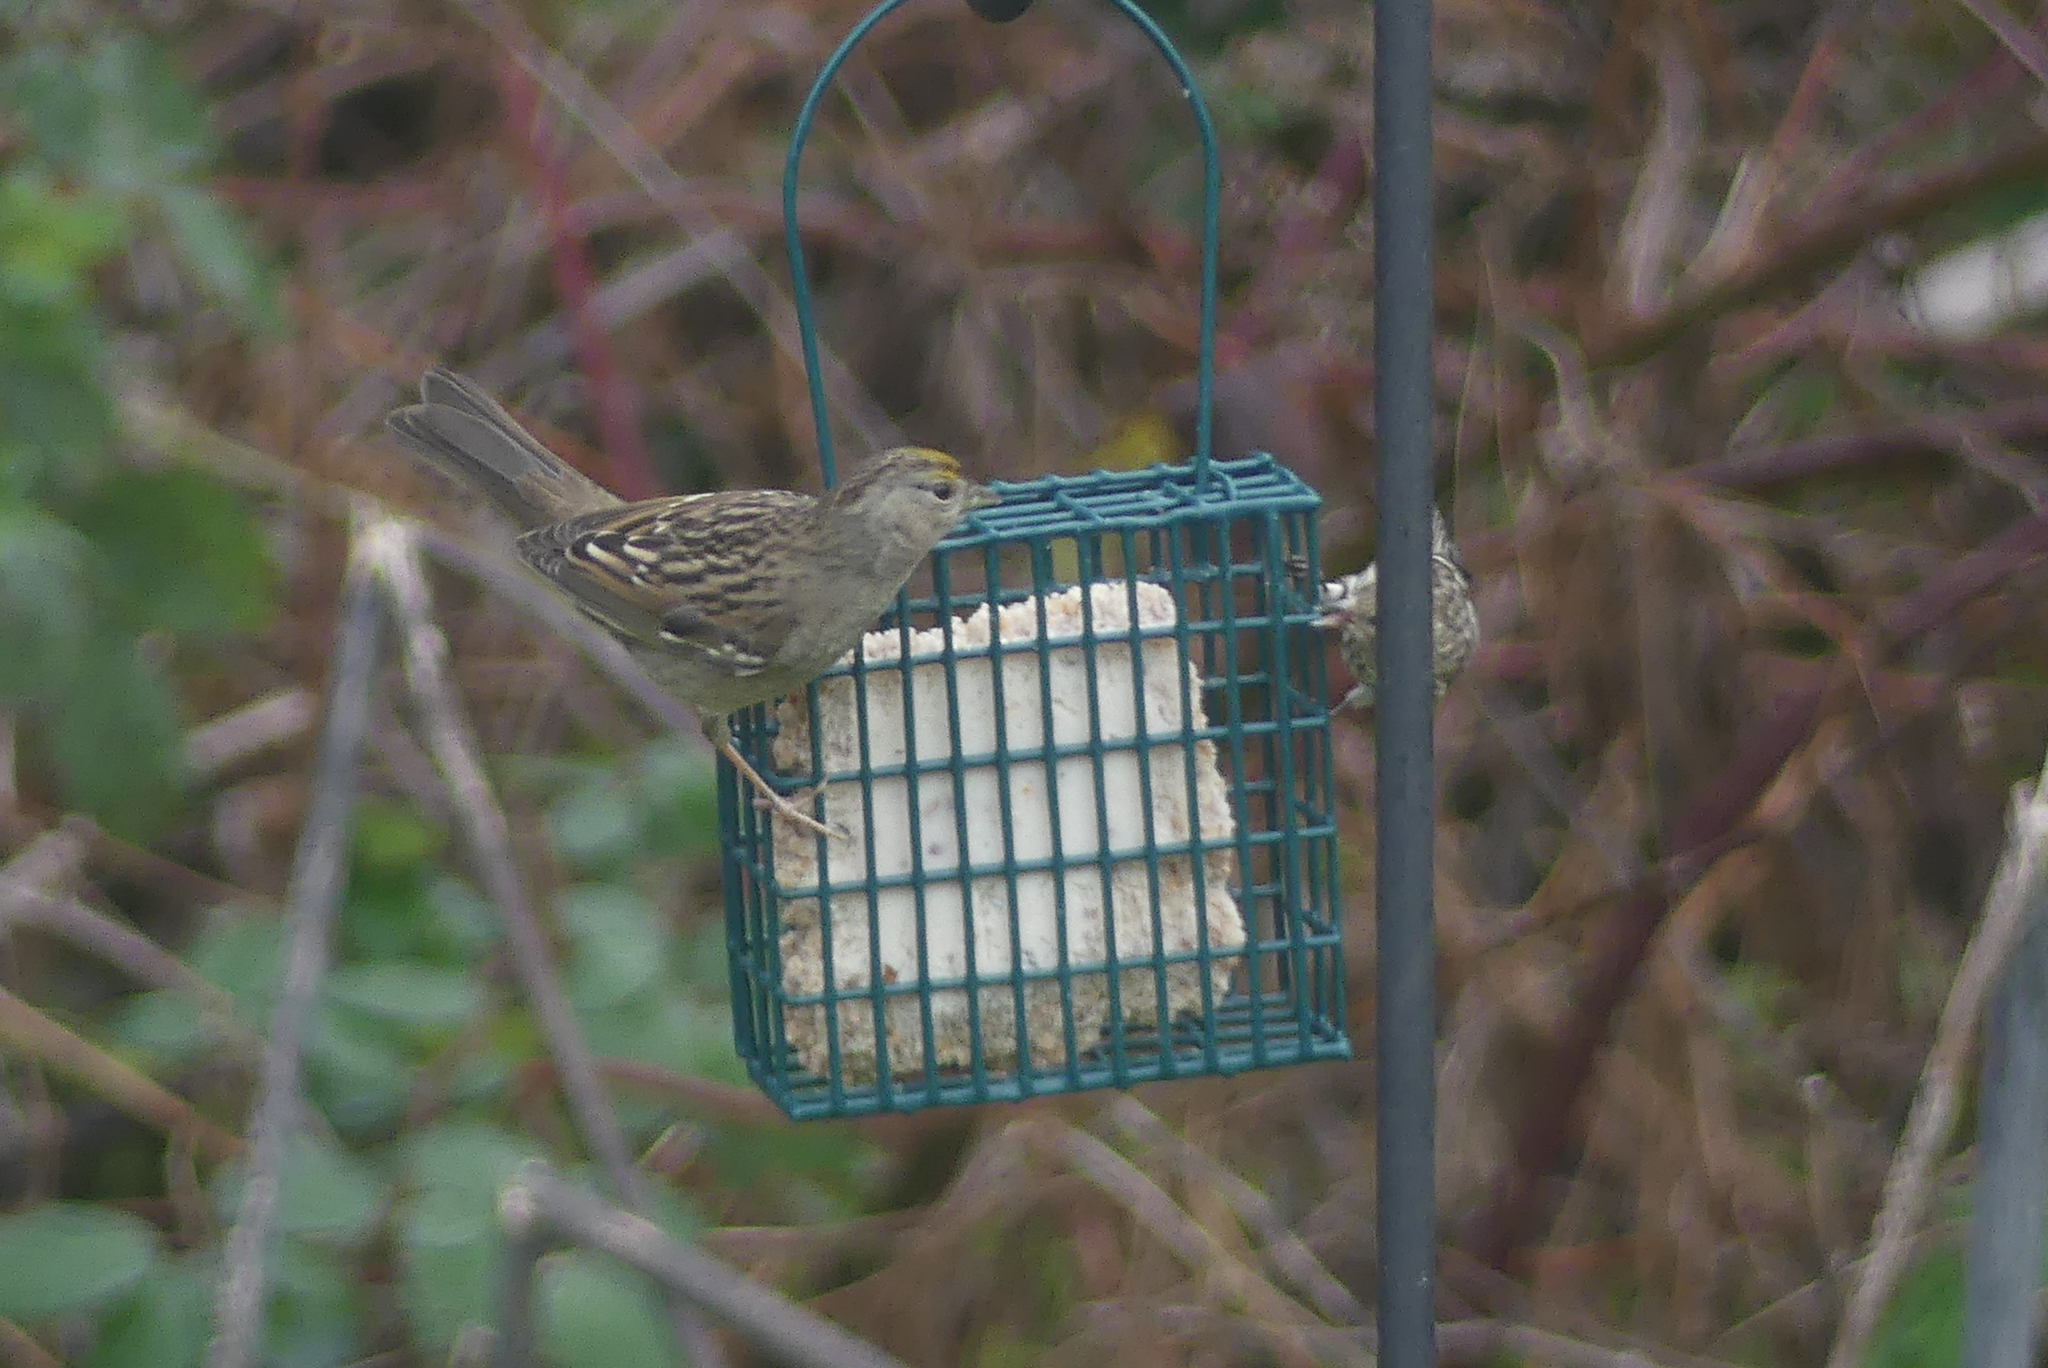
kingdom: Animalia
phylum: Chordata
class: Aves
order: Passeriformes
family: Fringillidae
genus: Spinus
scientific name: Spinus pinus
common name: Pine siskin
